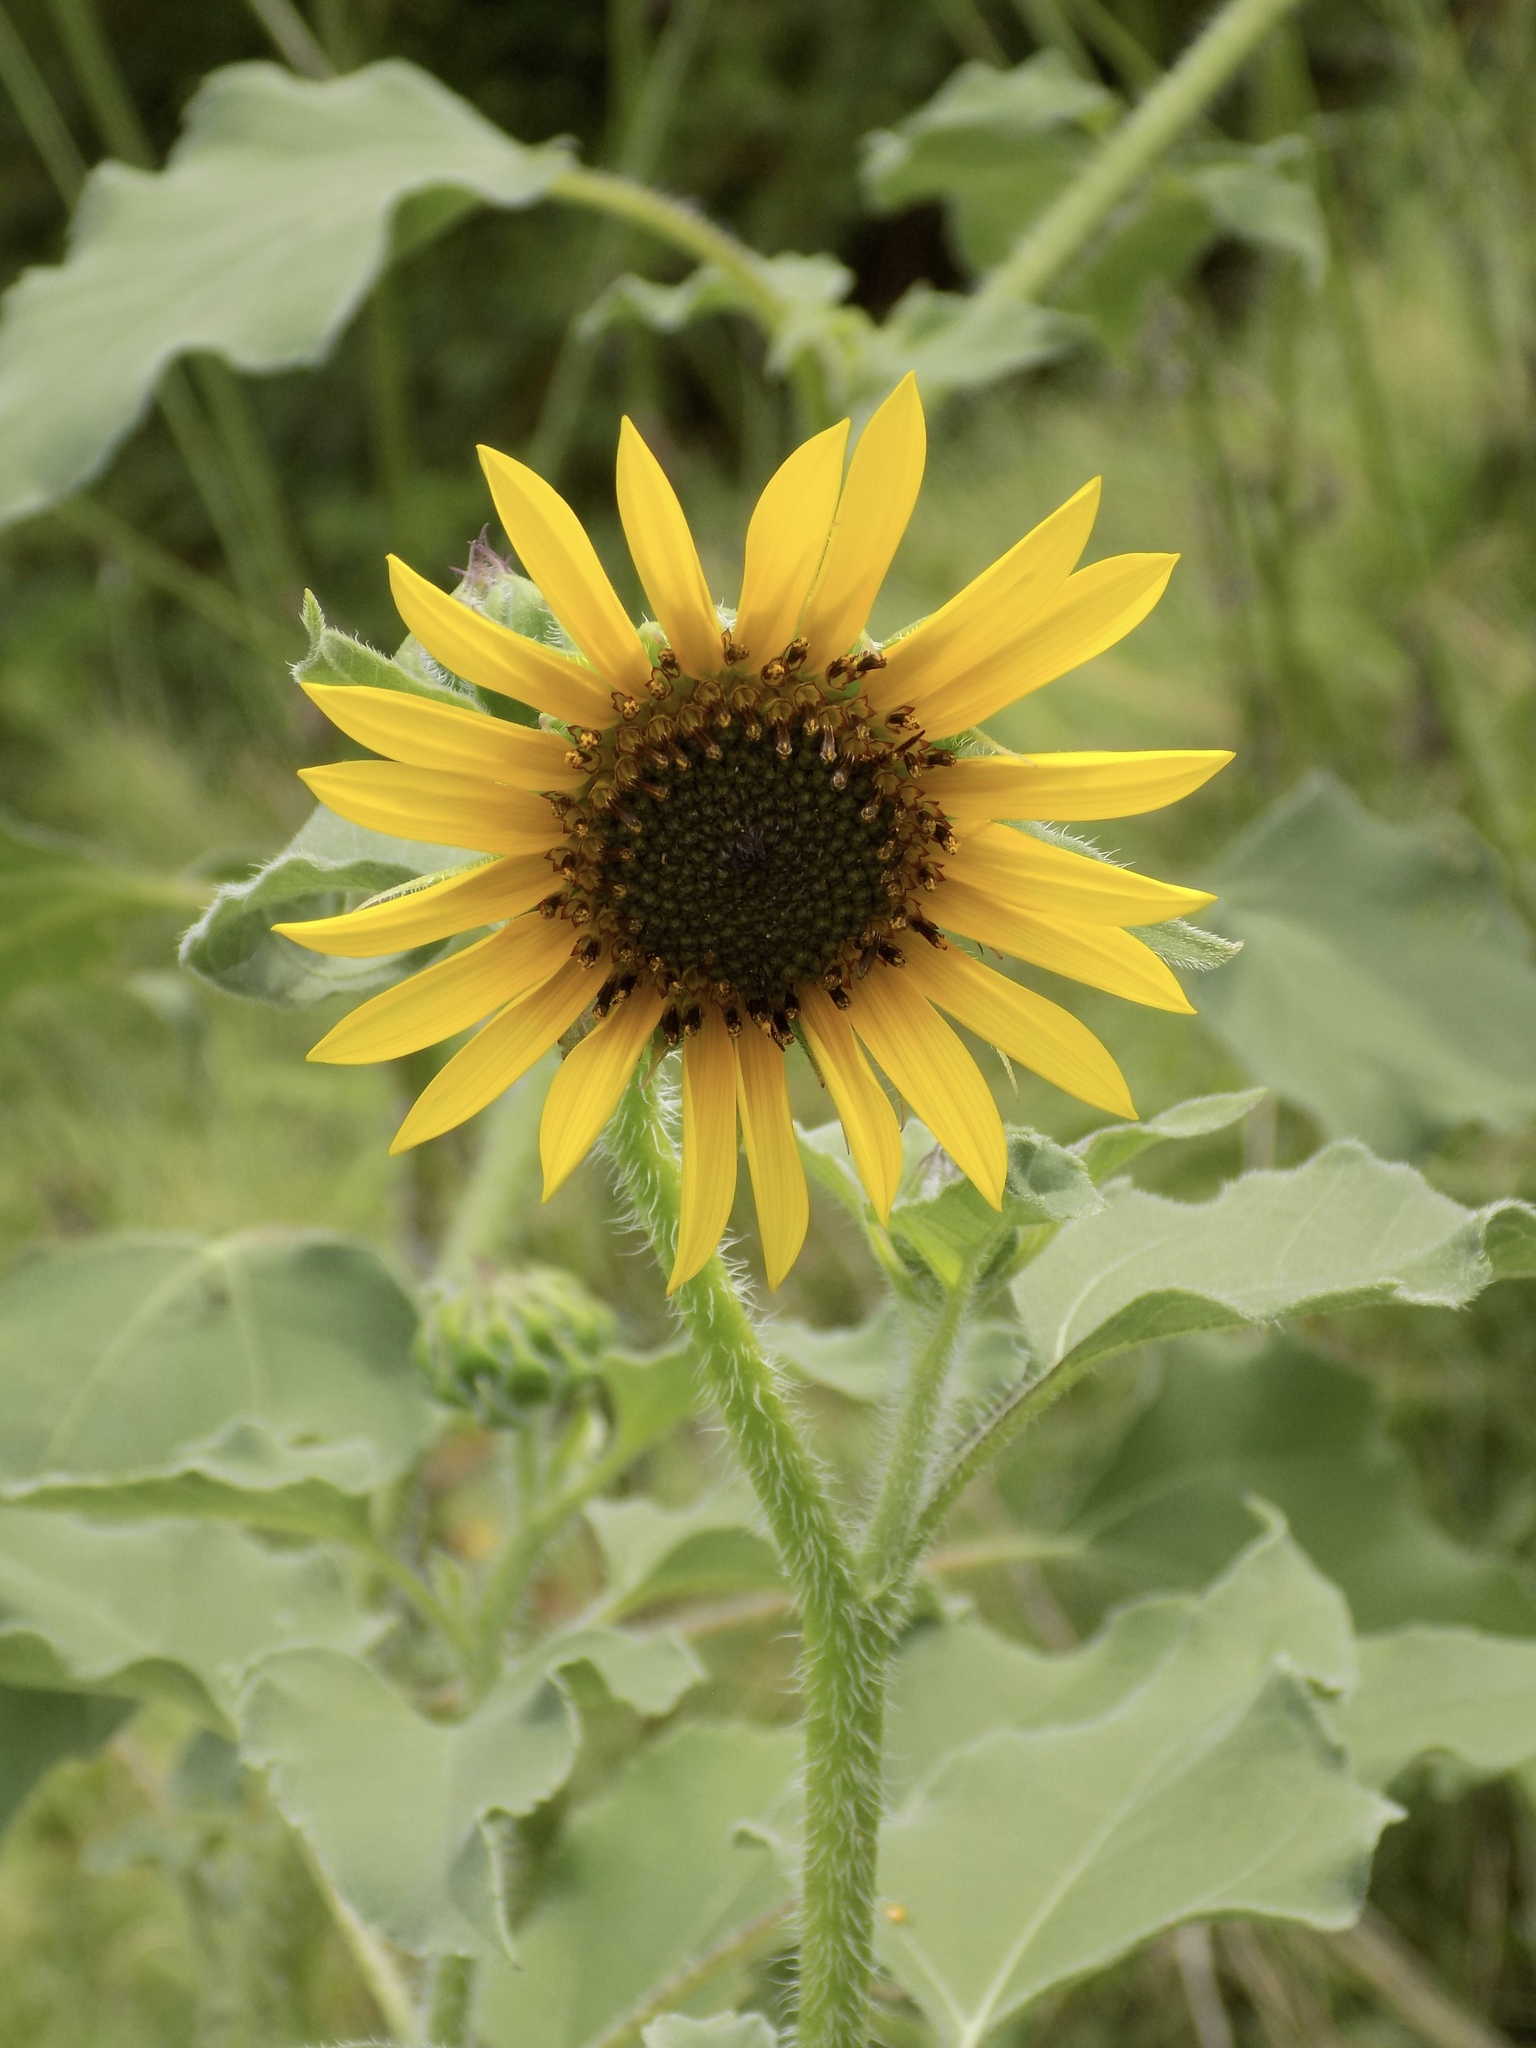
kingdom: Plantae
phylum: Tracheophyta
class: Magnoliopsida
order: Asterales
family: Asteraceae
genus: Helianthus
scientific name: Helianthus annuus
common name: Sunflower
